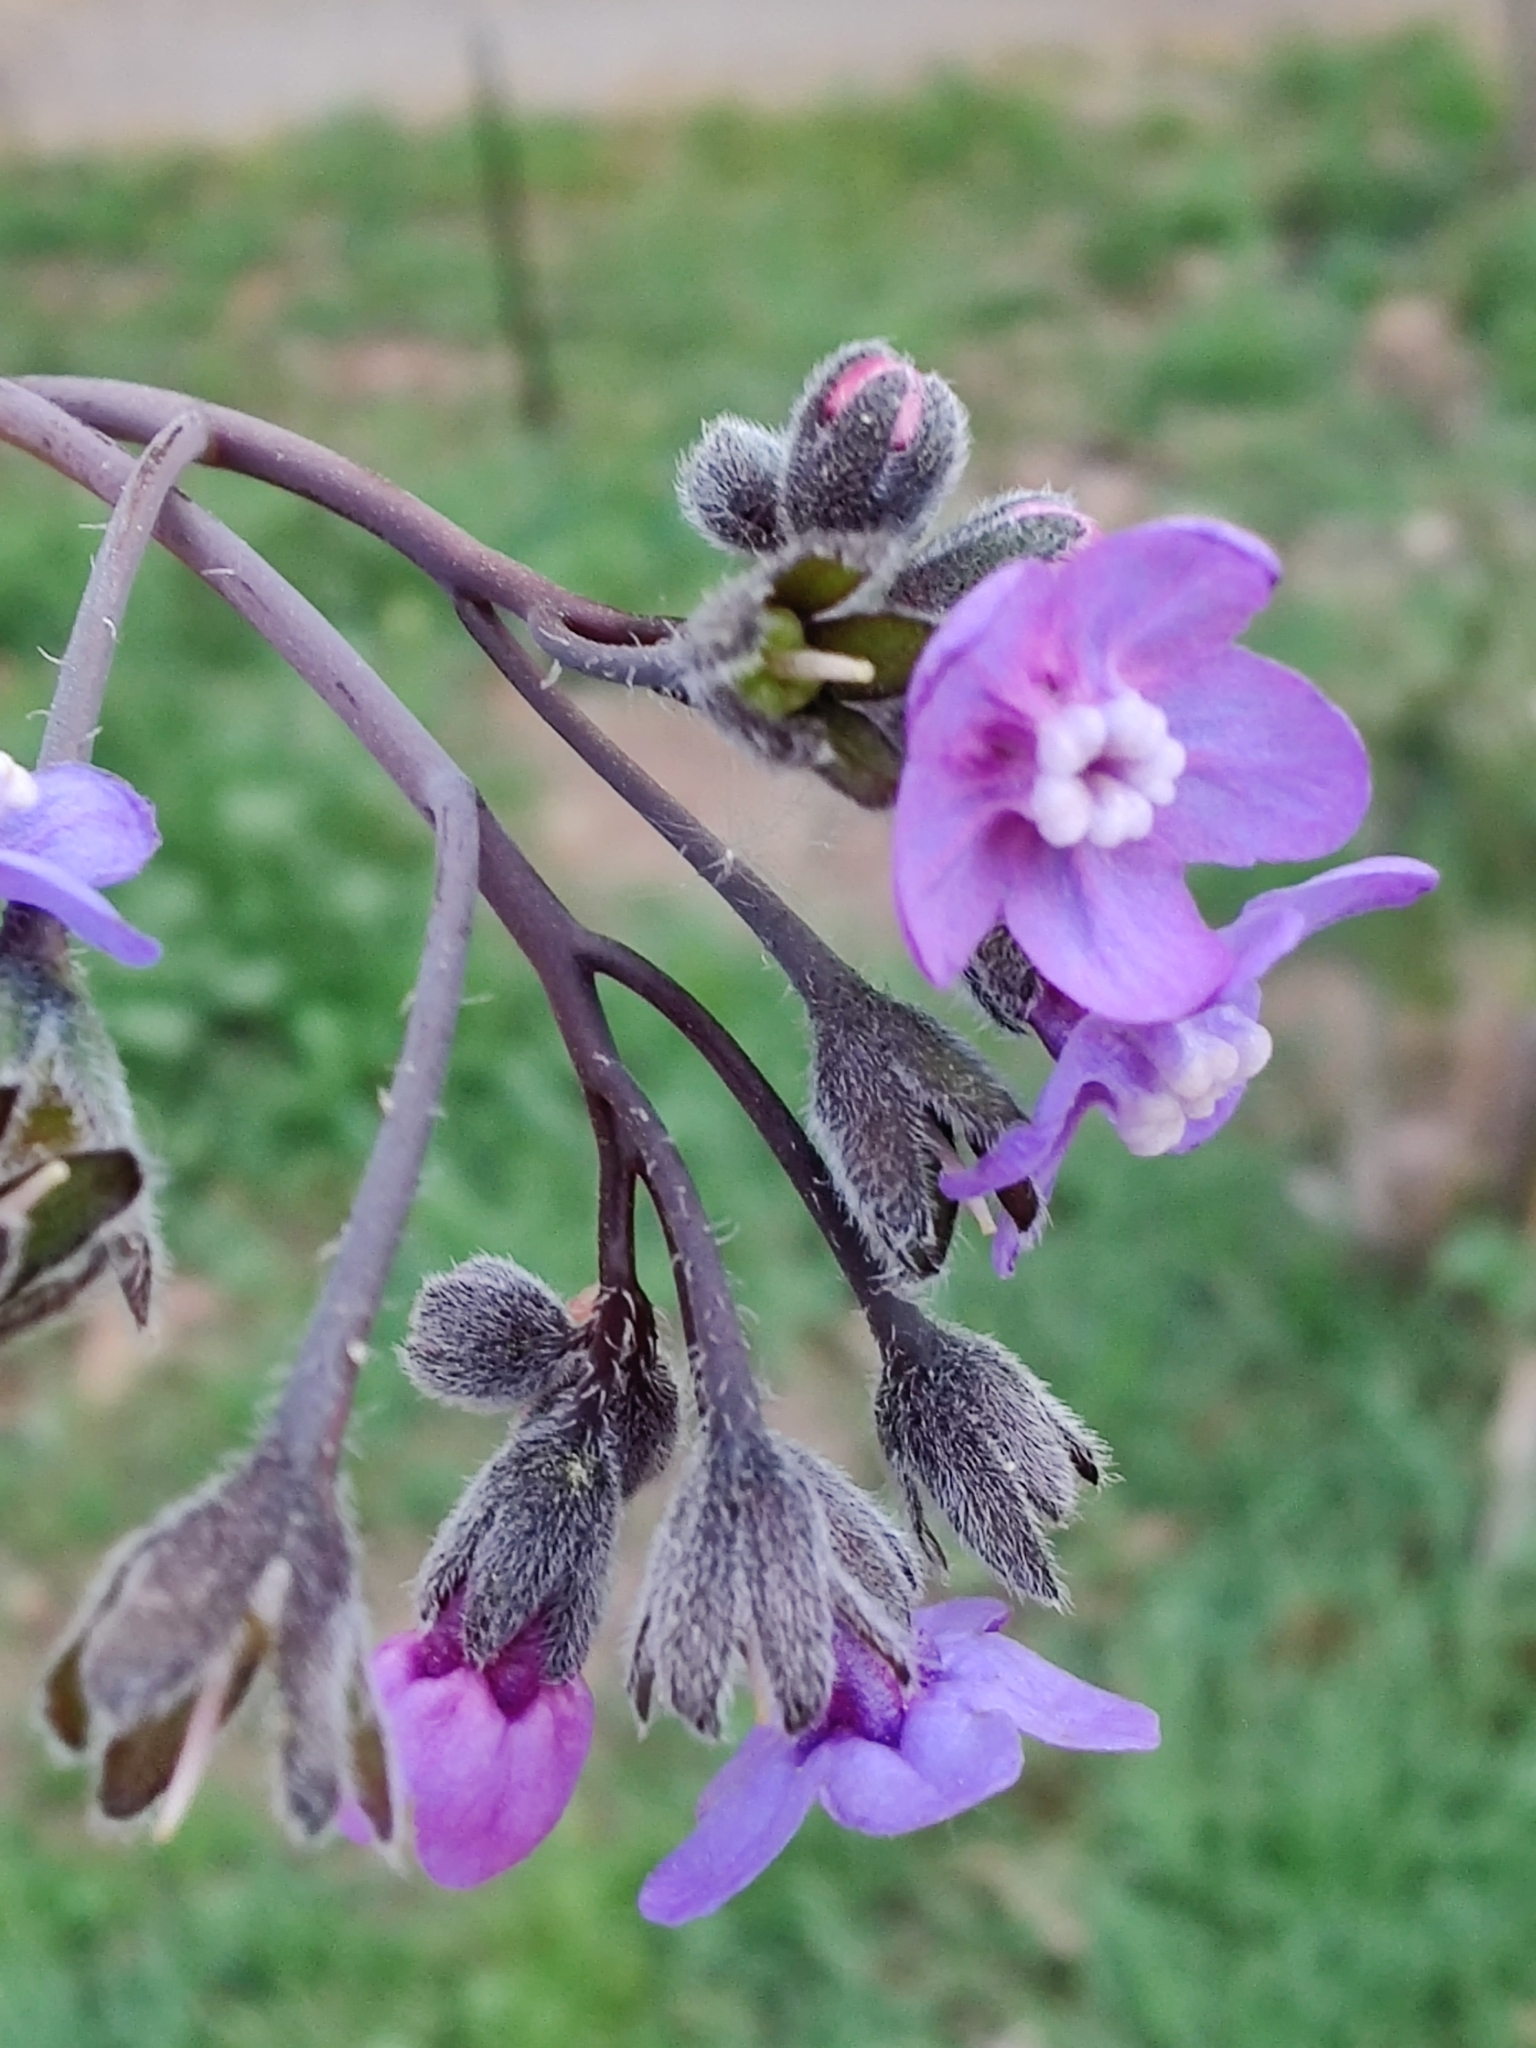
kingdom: Plantae
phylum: Tracheophyta
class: Magnoliopsida
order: Boraginales
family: Boraginaceae
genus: Adelinia
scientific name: Adelinia grande
